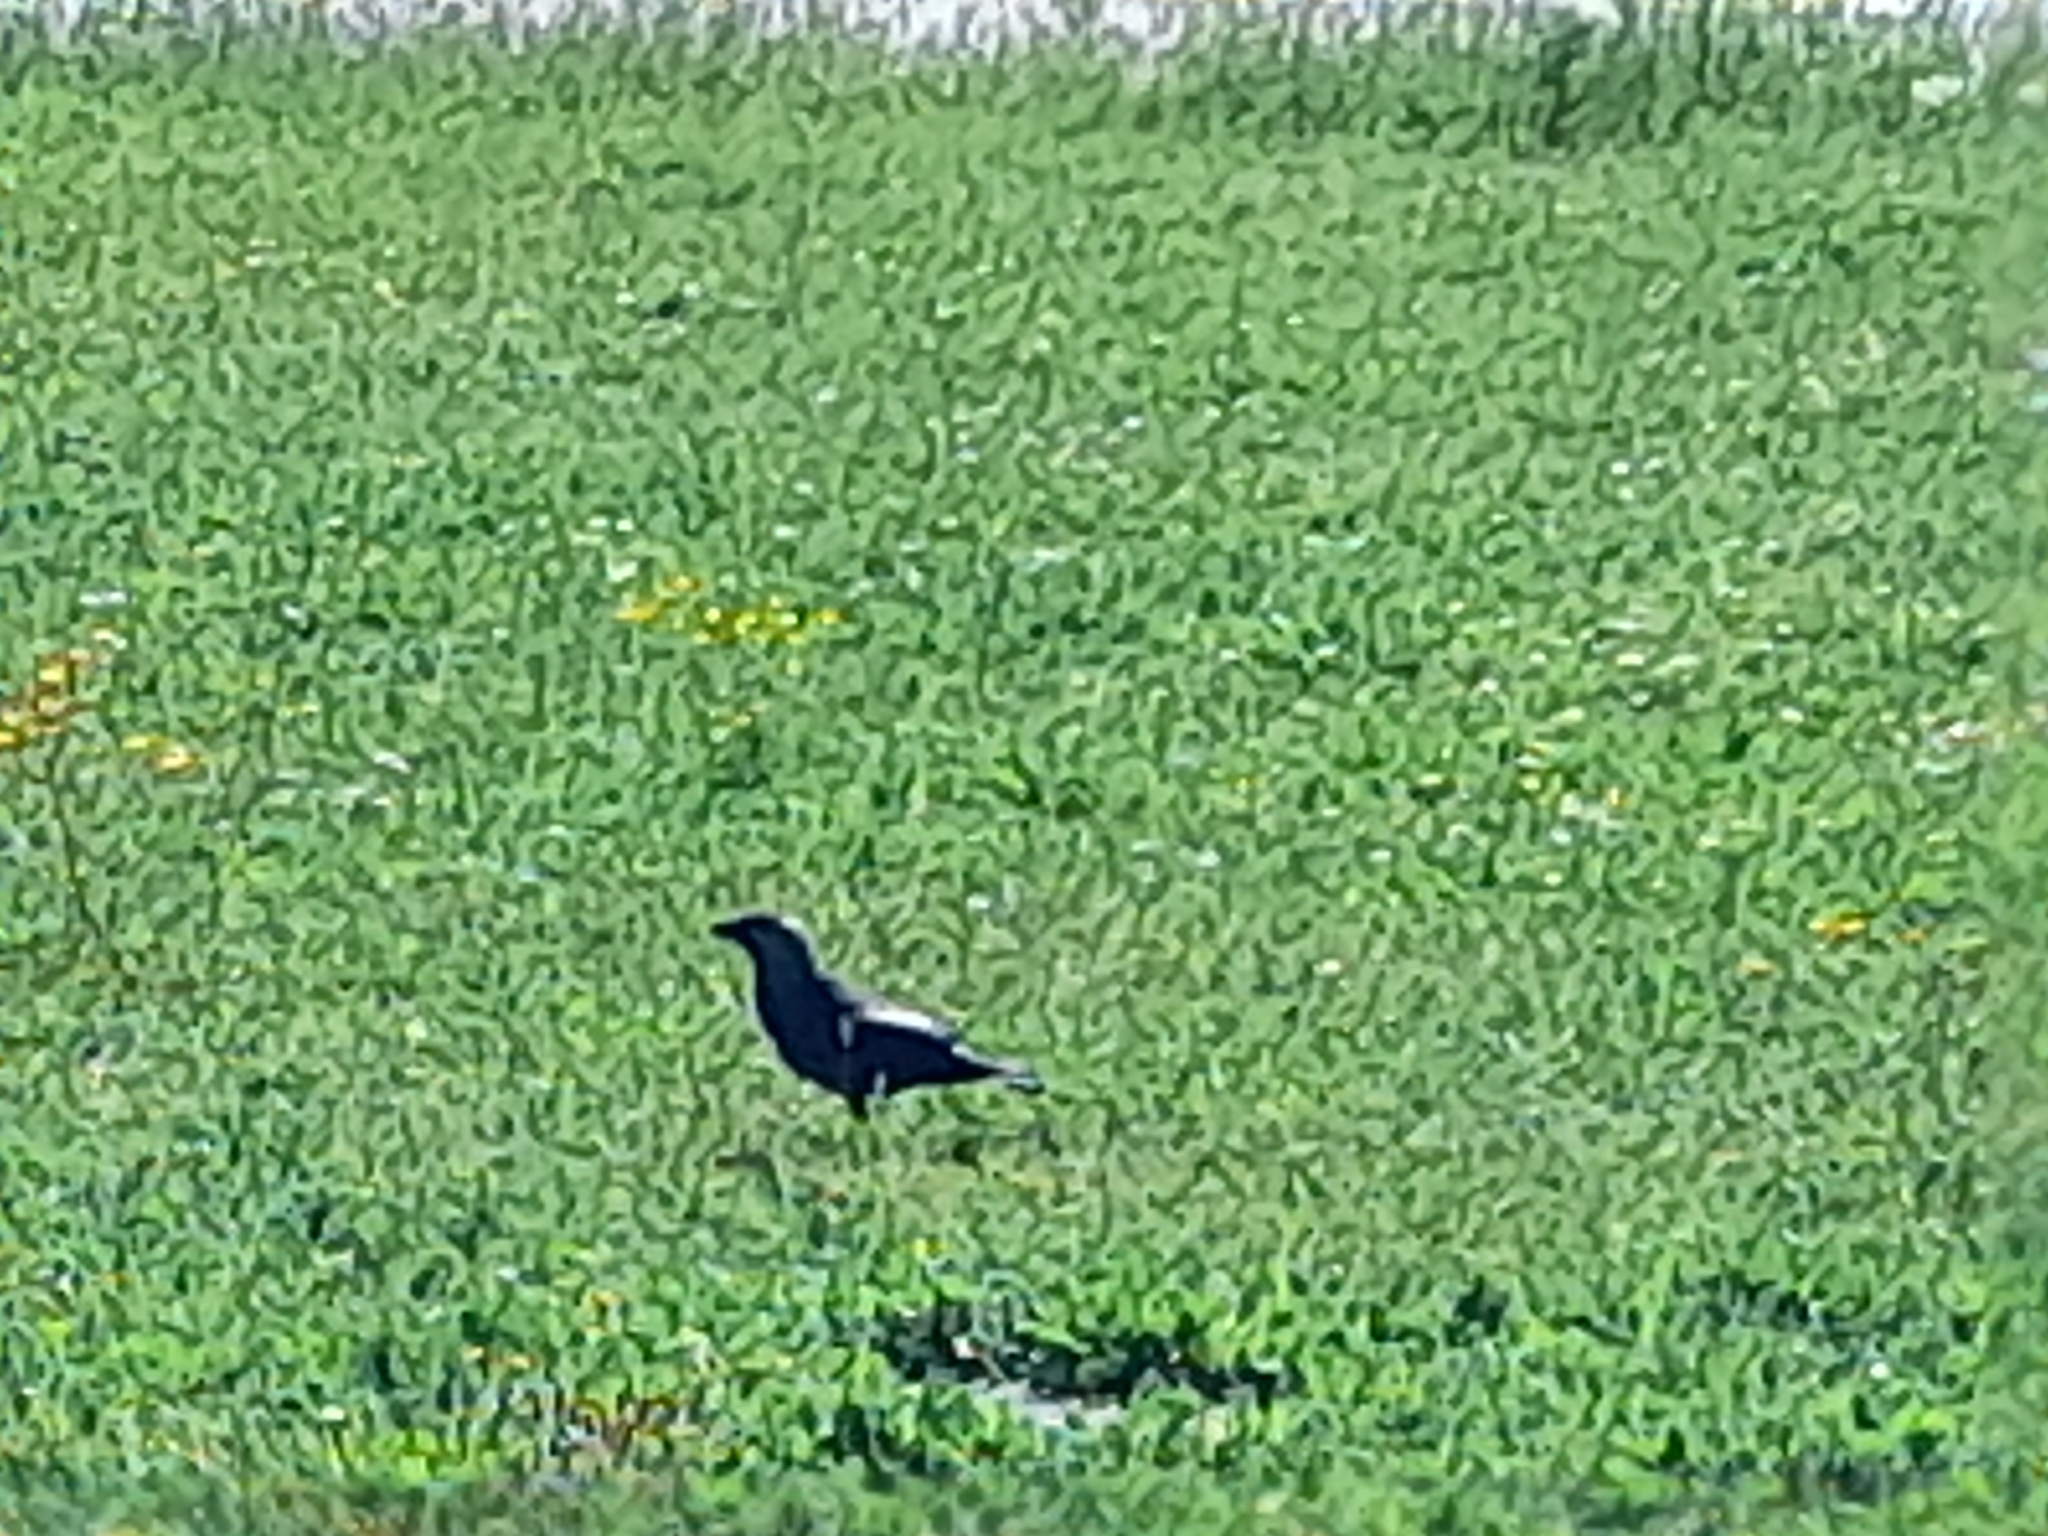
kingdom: Animalia
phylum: Chordata
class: Aves
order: Passeriformes
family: Corvidae
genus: Coloeus
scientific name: Coloeus monedula
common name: Western jackdaw
